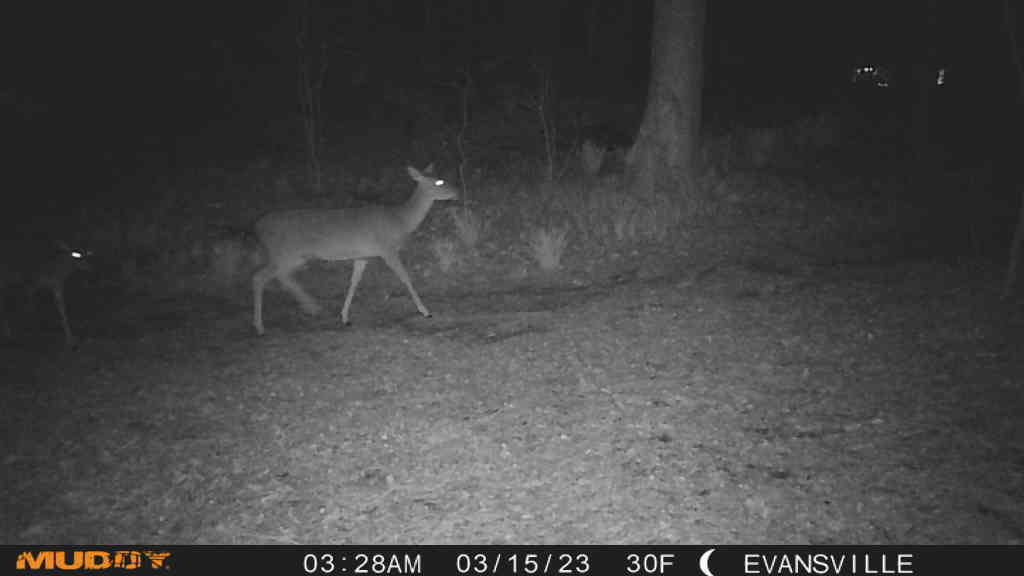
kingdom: Animalia
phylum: Chordata
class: Mammalia
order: Artiodactyla
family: Cervidae
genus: Odocoileus
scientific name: Odocoileus virginianus
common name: White-tailed deer
